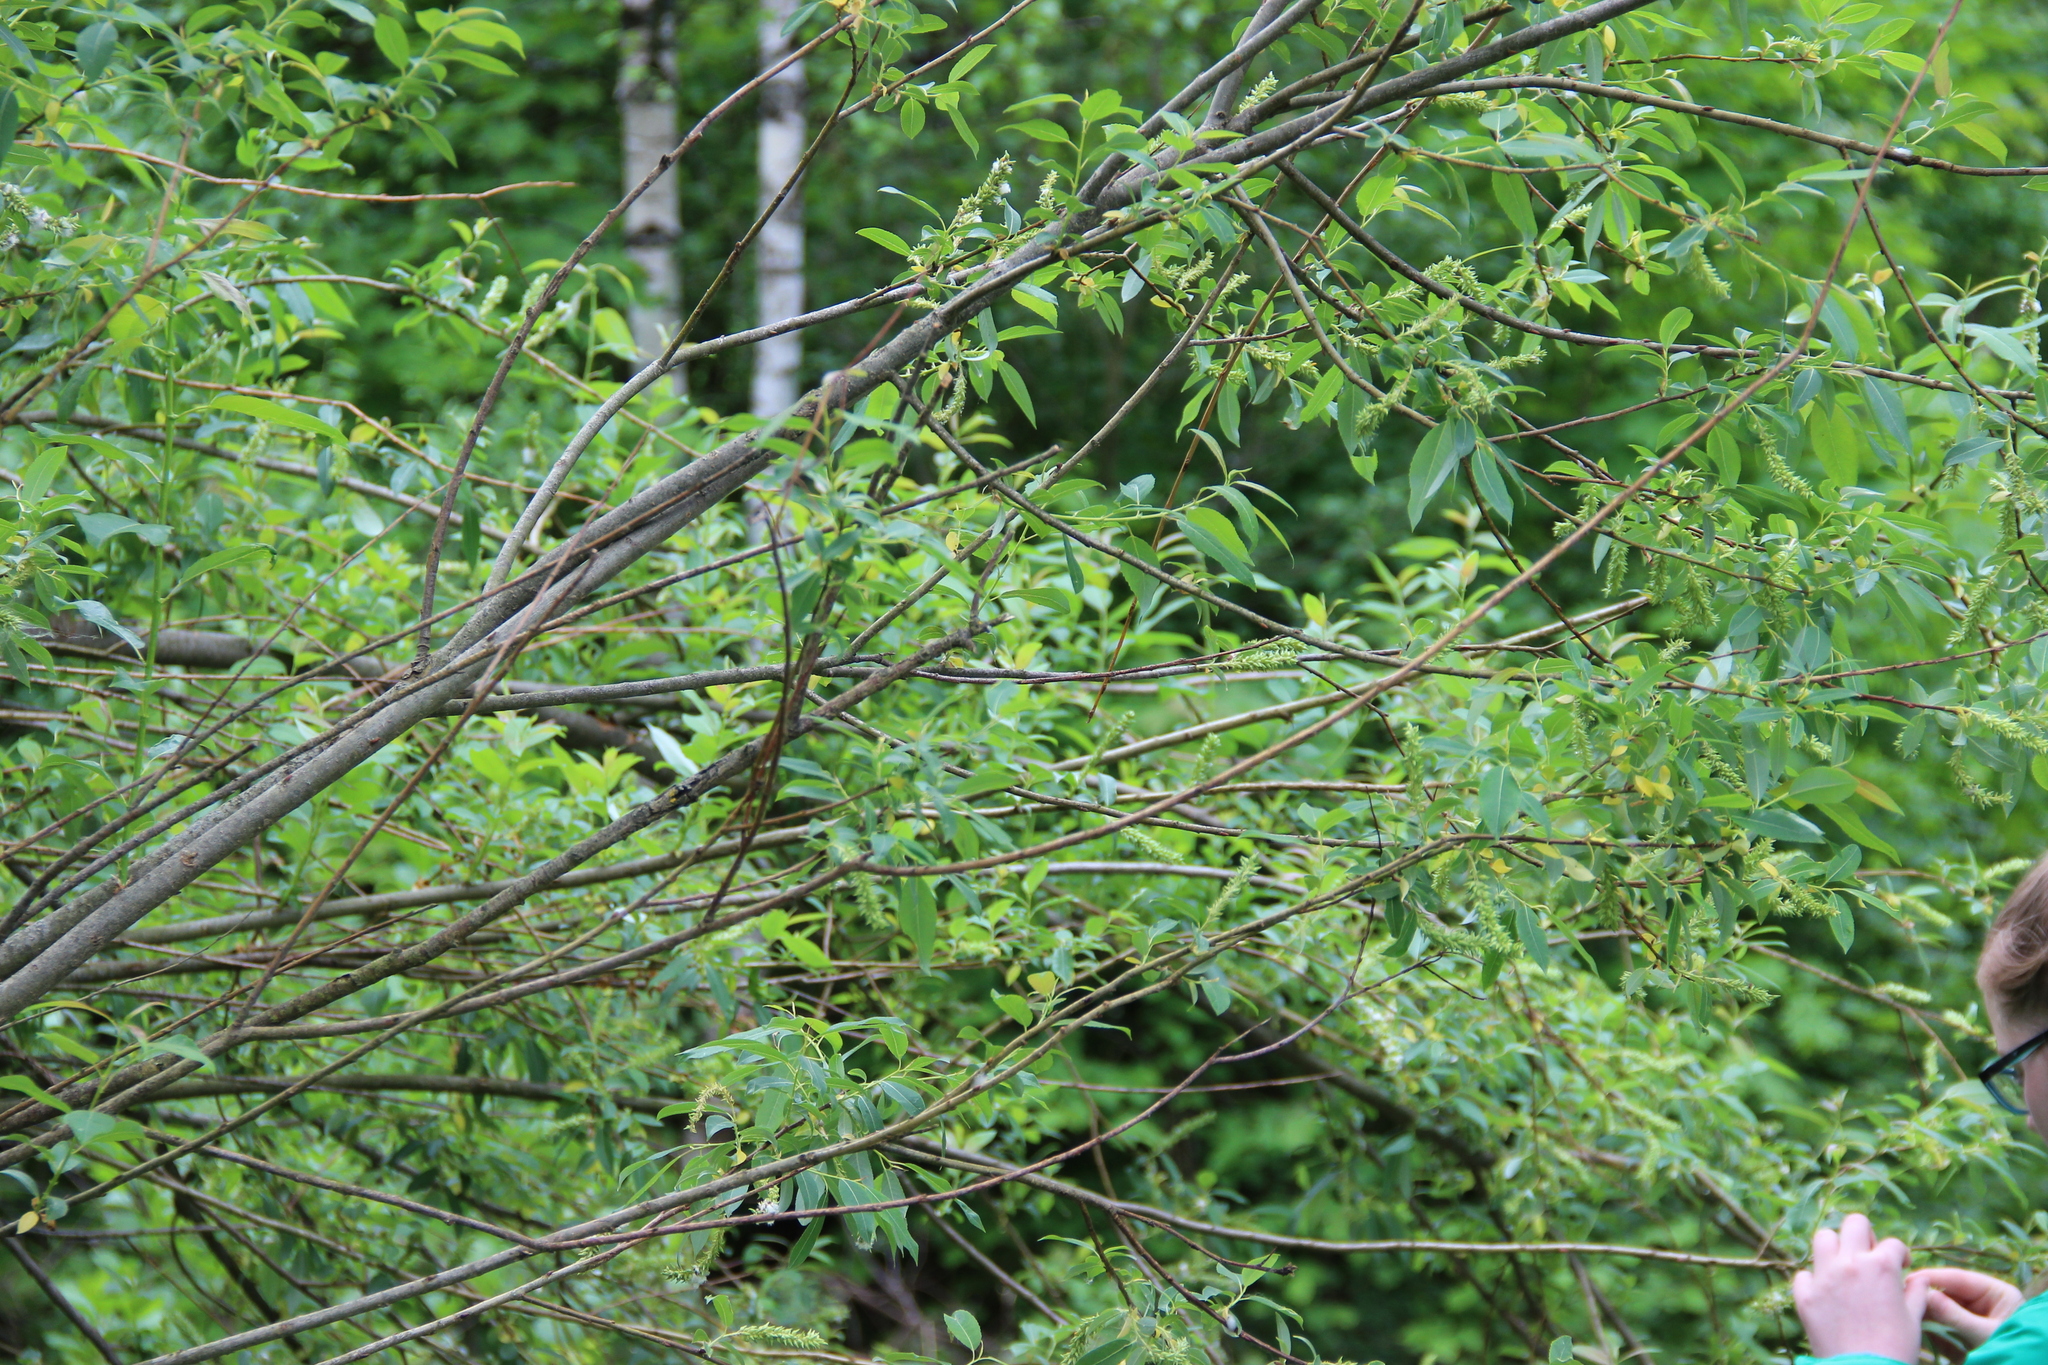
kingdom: Plantae
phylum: Tracheophyta
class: Magnoliopsida
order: Malpighiales
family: Salicaceae
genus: Salix
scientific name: Salix triandra
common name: Almond willow
